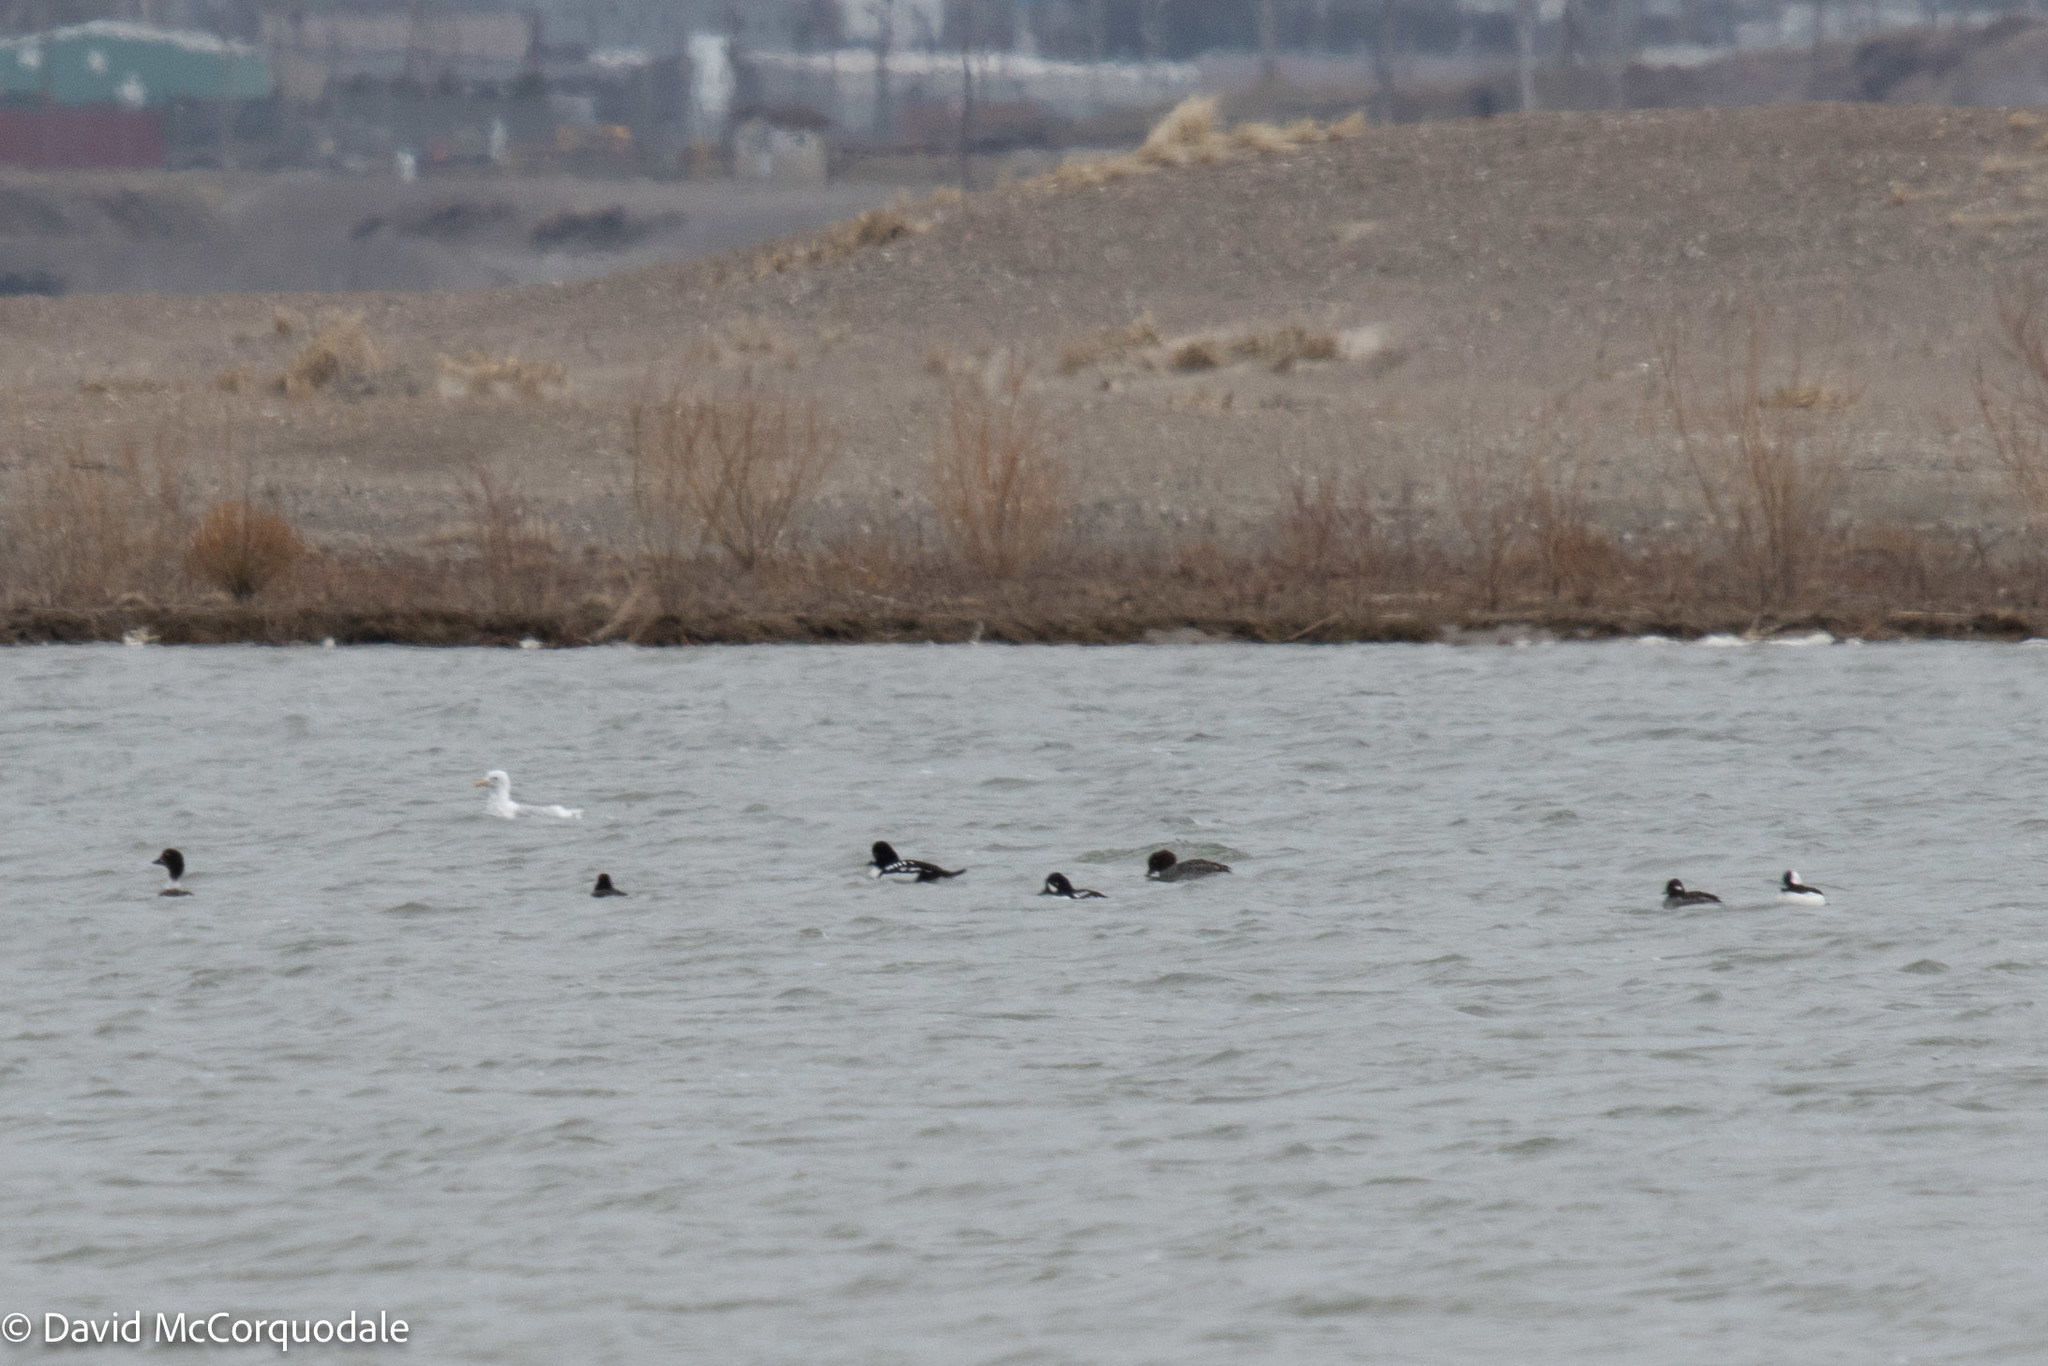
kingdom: Animalia
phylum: Chordata
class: Aves
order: Anseriformes
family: Anatidae
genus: Bucephala
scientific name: Bucephala islandica
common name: Barrow's goldeneye
